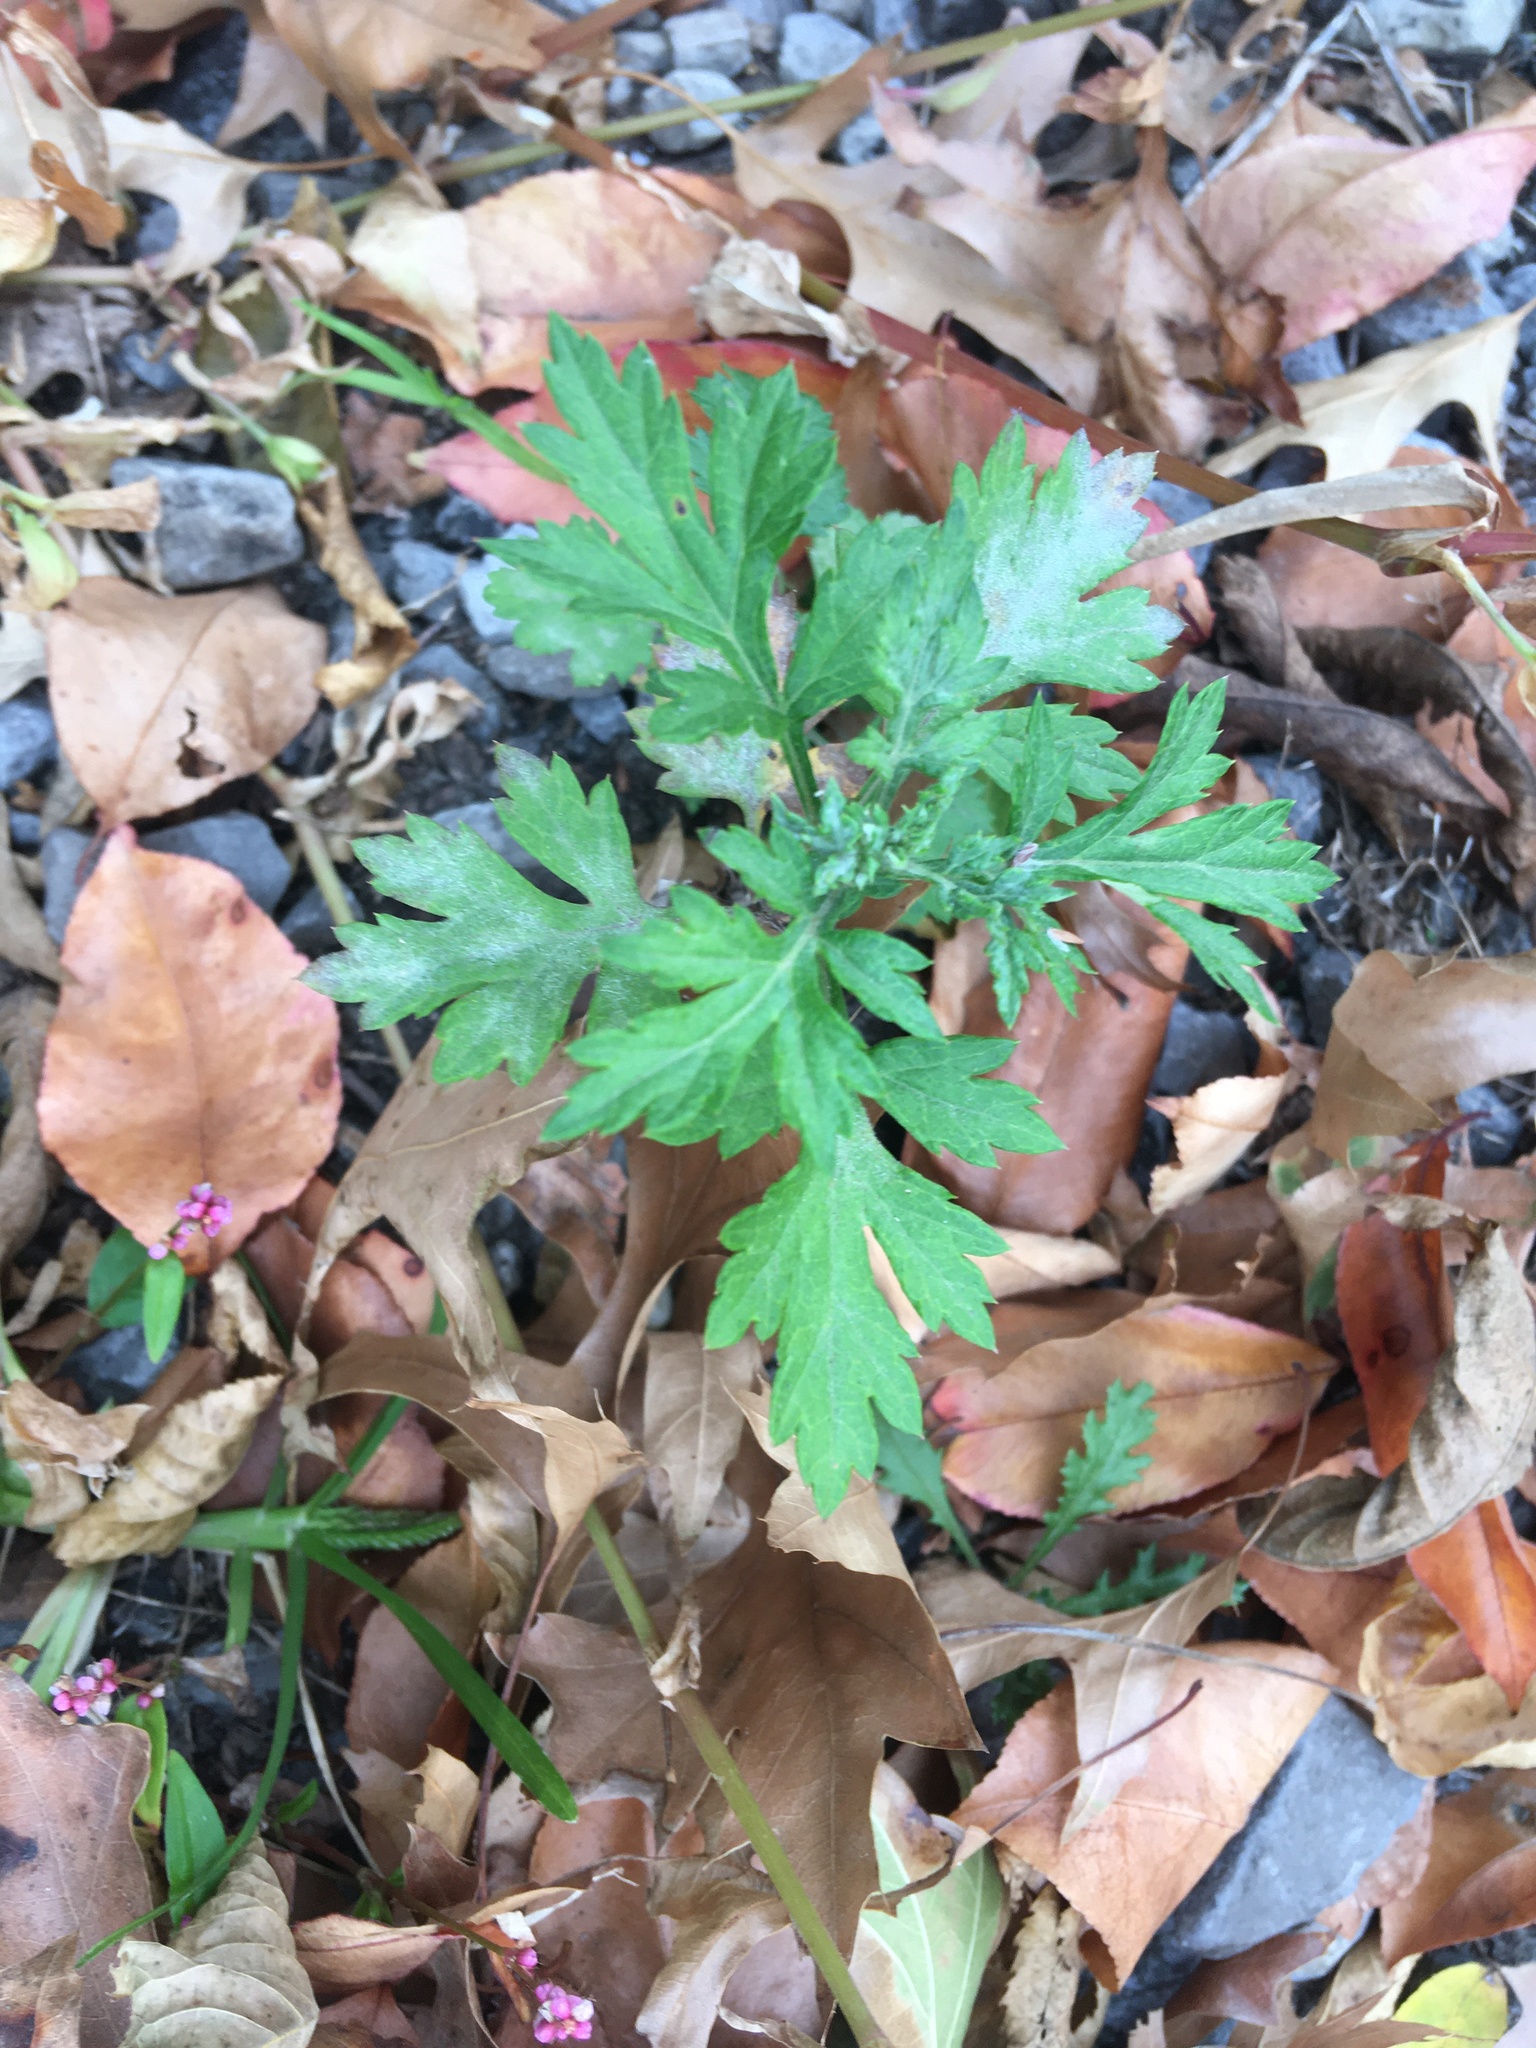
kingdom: Plantae
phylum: Tracheophyta
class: Magnoliopsida
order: Asterales
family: Asteraceae
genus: Artemisia
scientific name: Artemisia vulgaris
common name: Mugwort
